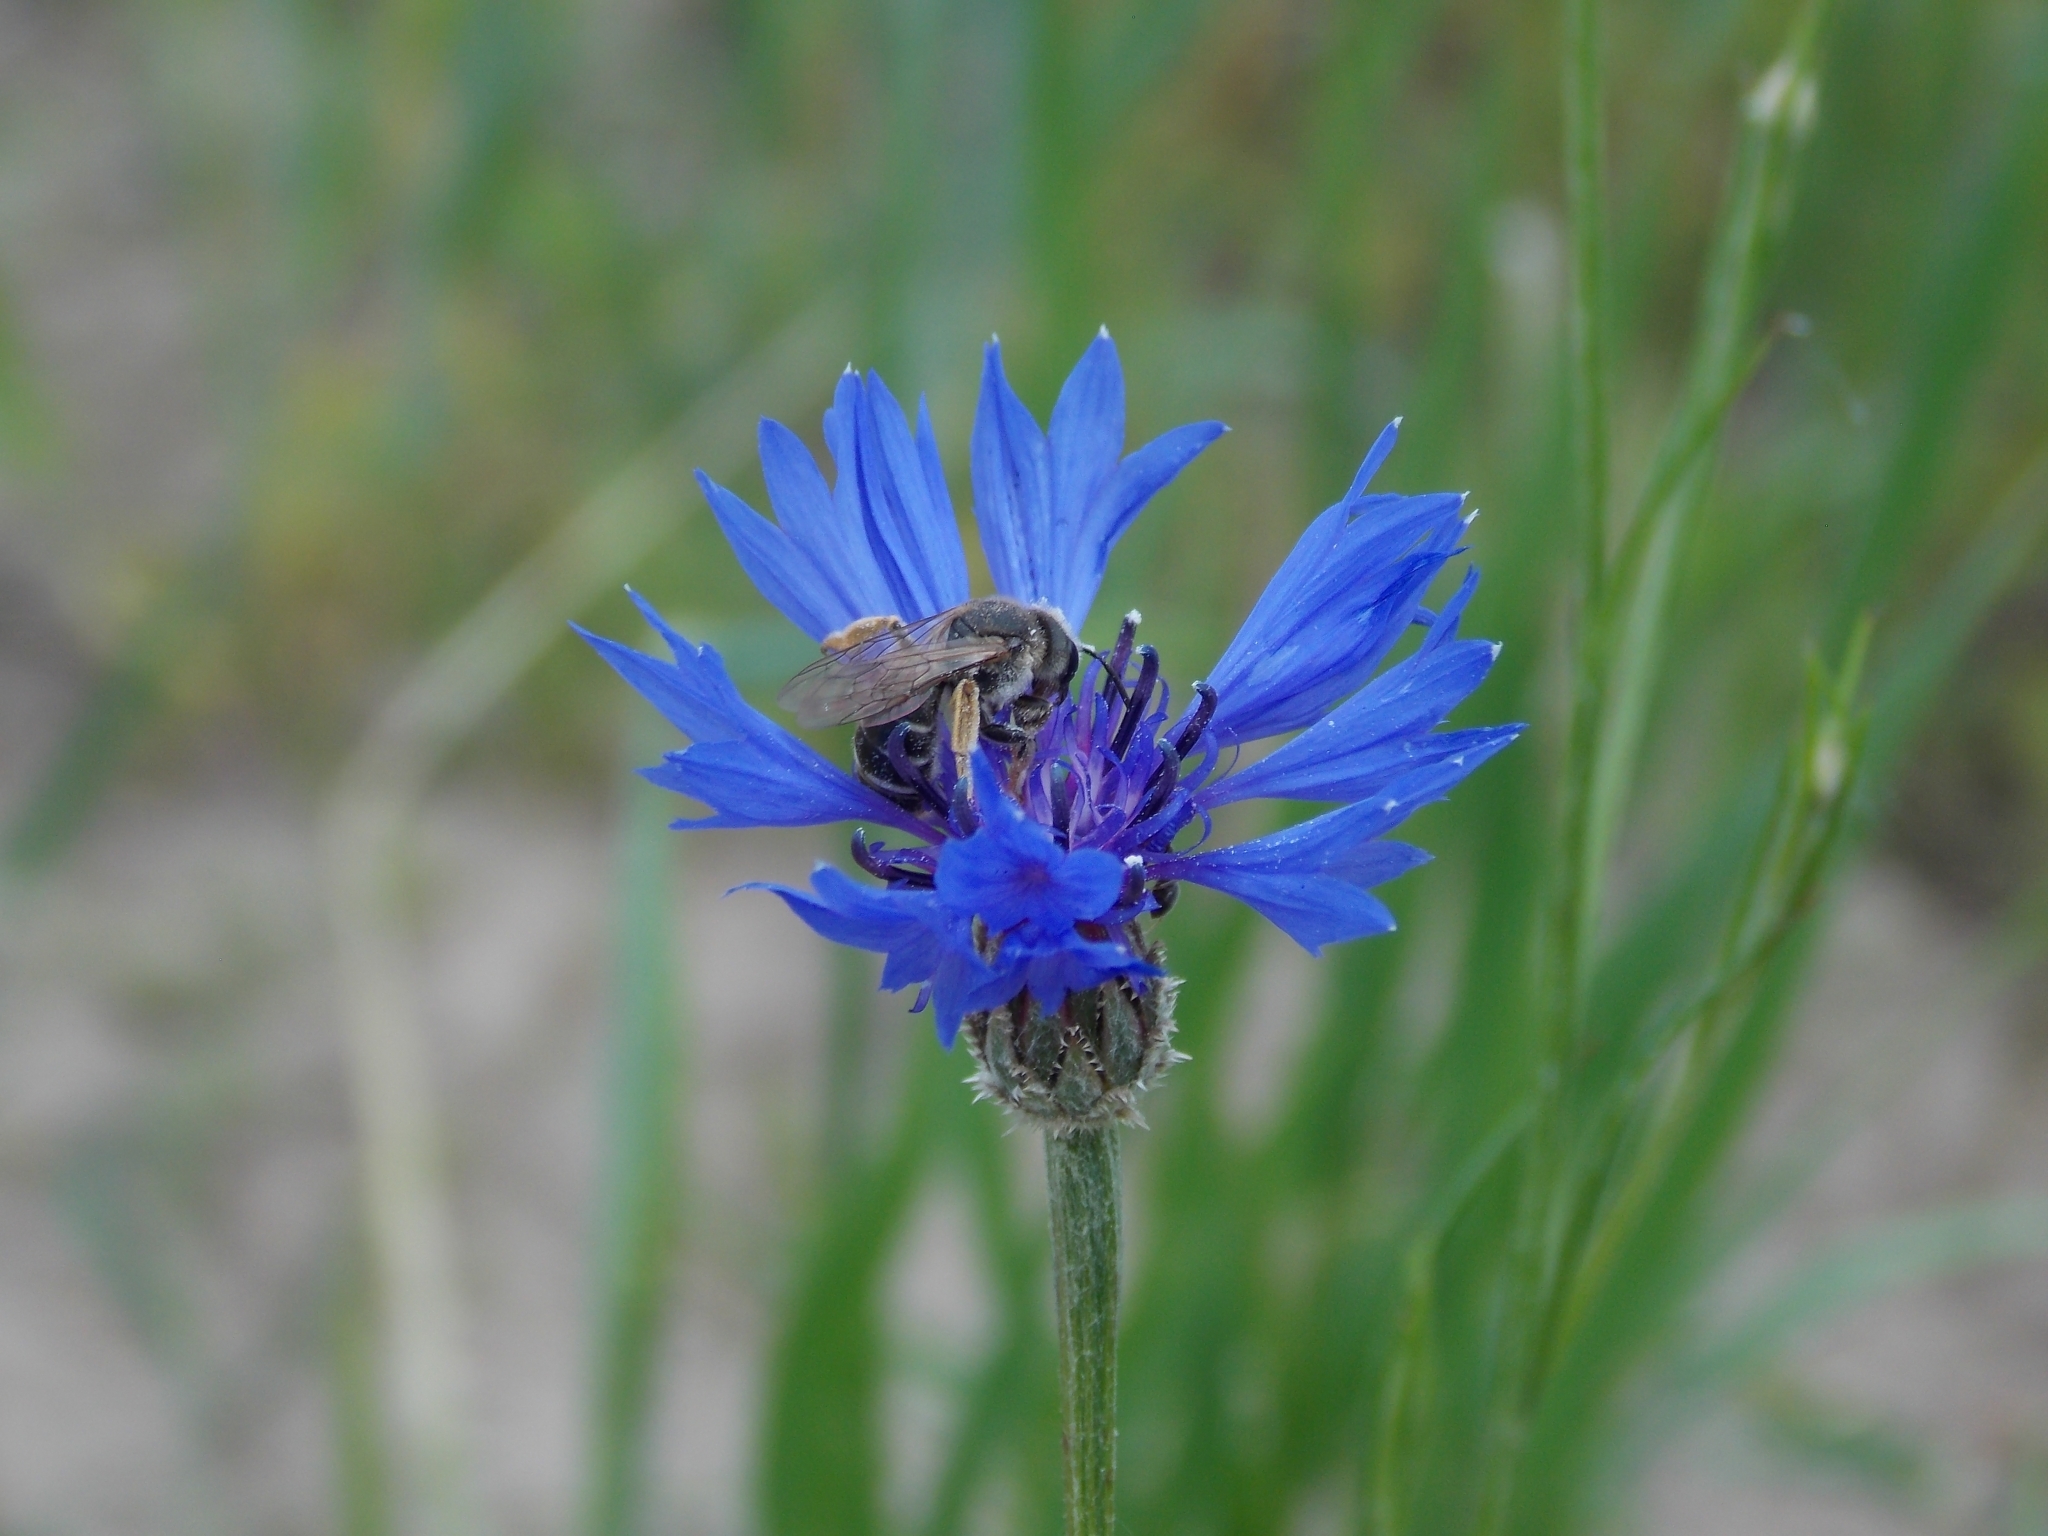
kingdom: Plantae
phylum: Tracheophyta
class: Magnoliopsida
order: Asterales
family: Asteraceae
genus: Centaurea
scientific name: Centaurea cyanus
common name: Cornflower
